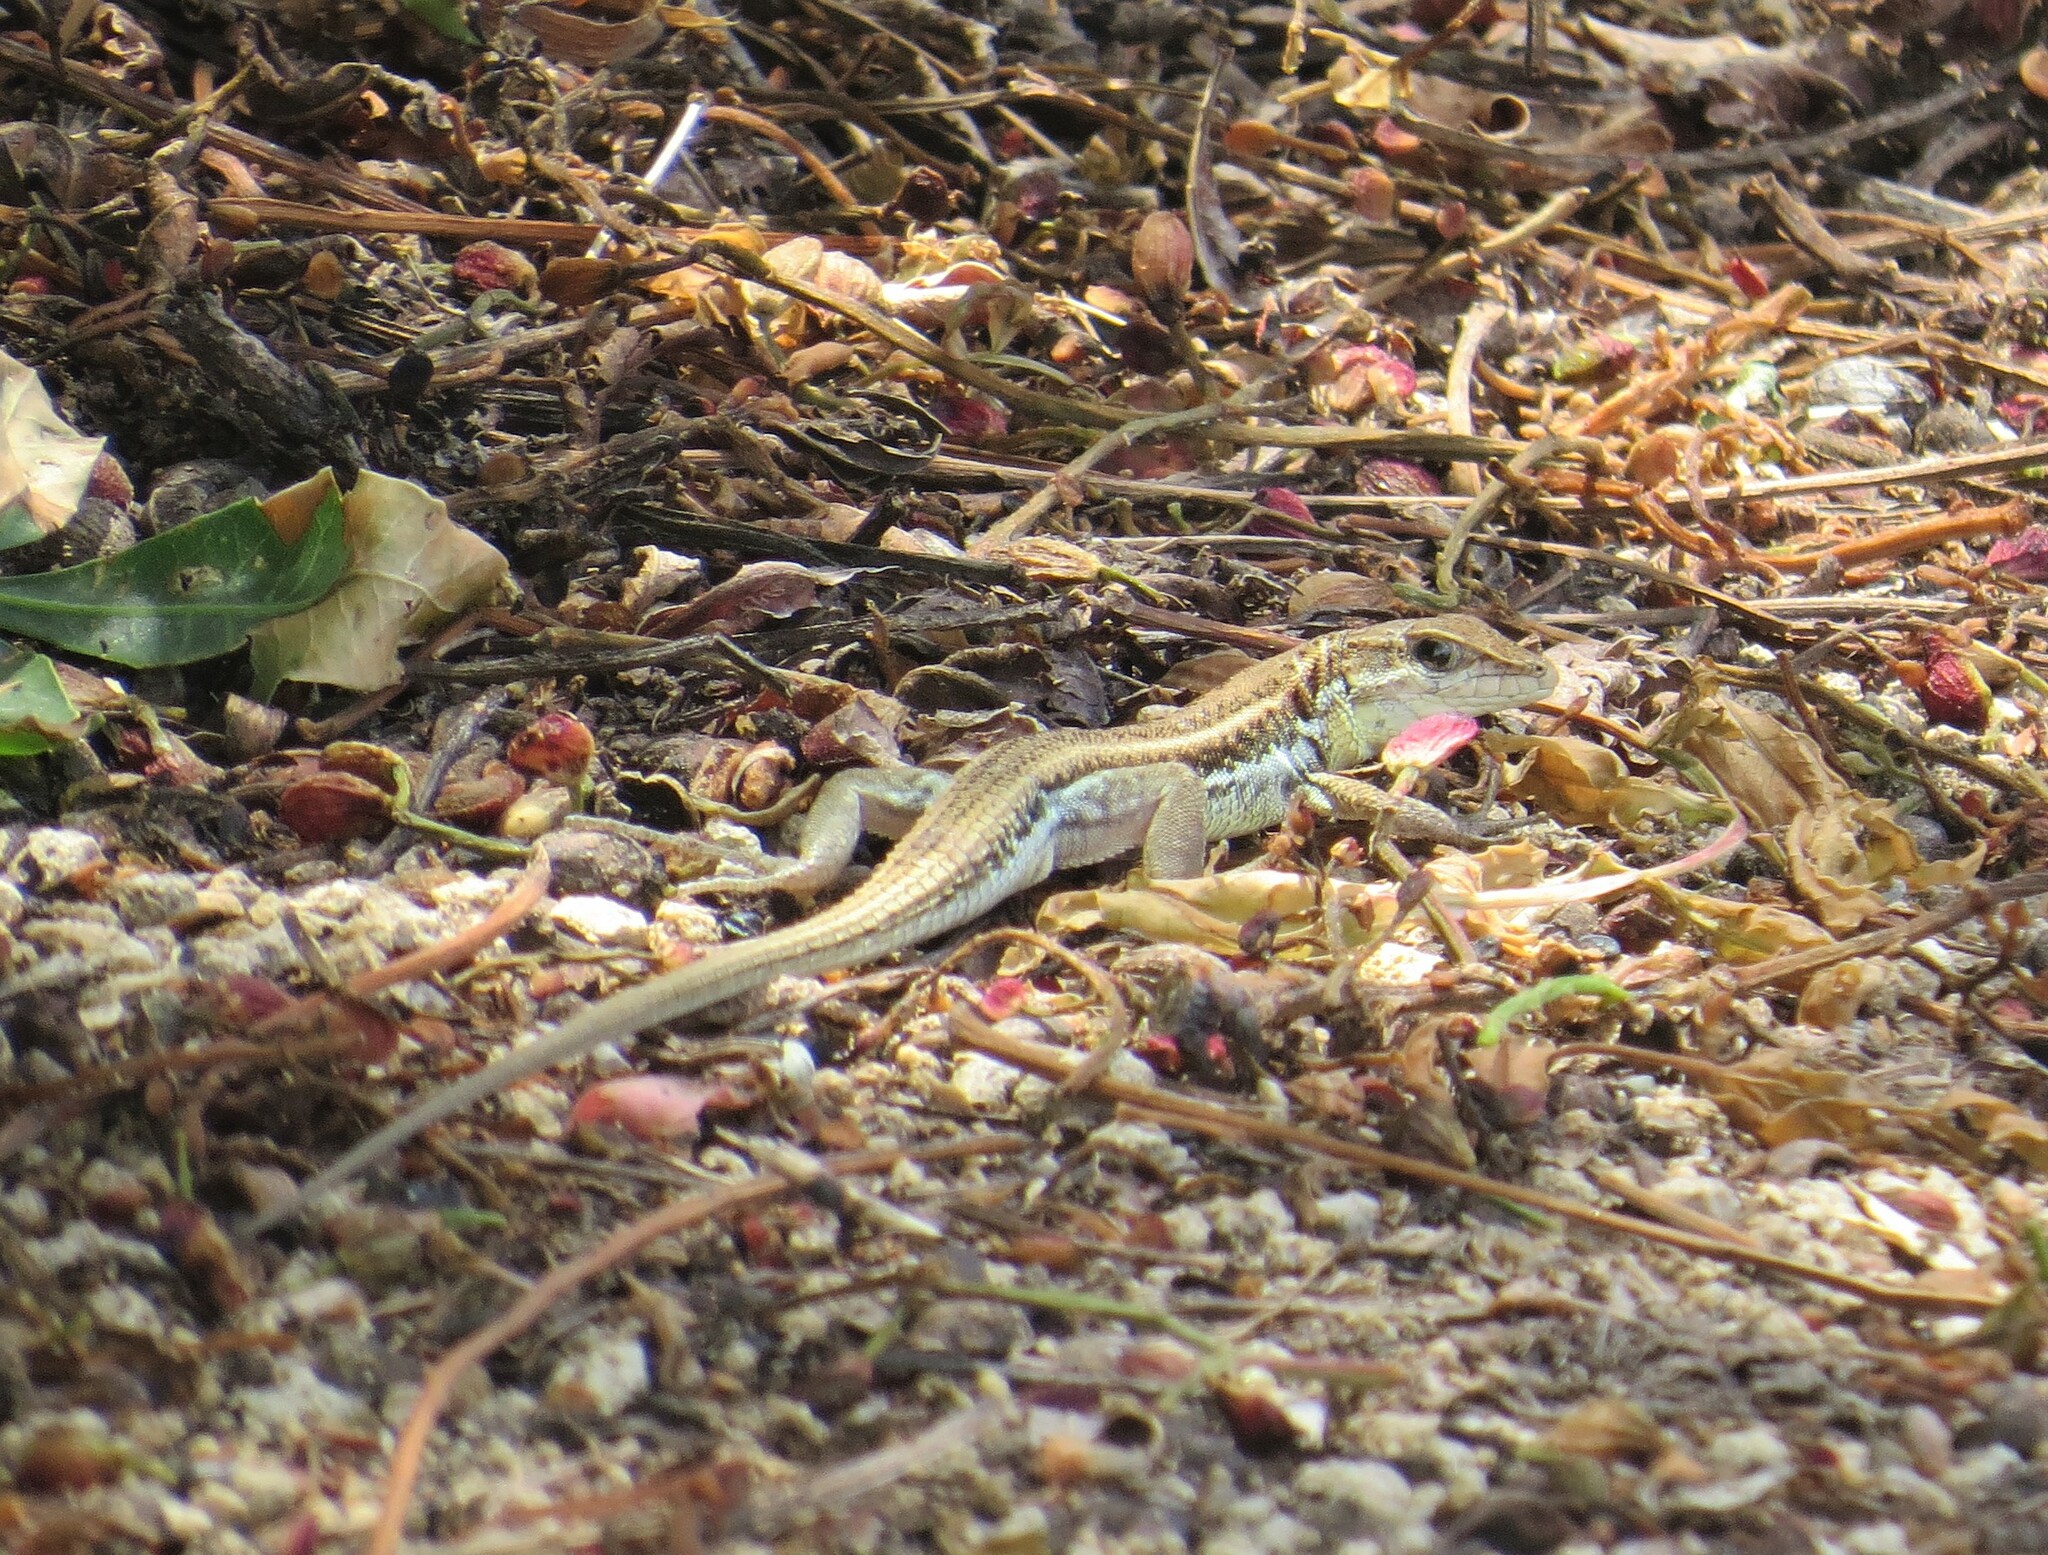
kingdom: Animalia
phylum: Chordata
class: Squamata
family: Lacertidae
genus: Ophisops
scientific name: Ophisops elegans
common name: Snake-eyed lizard
